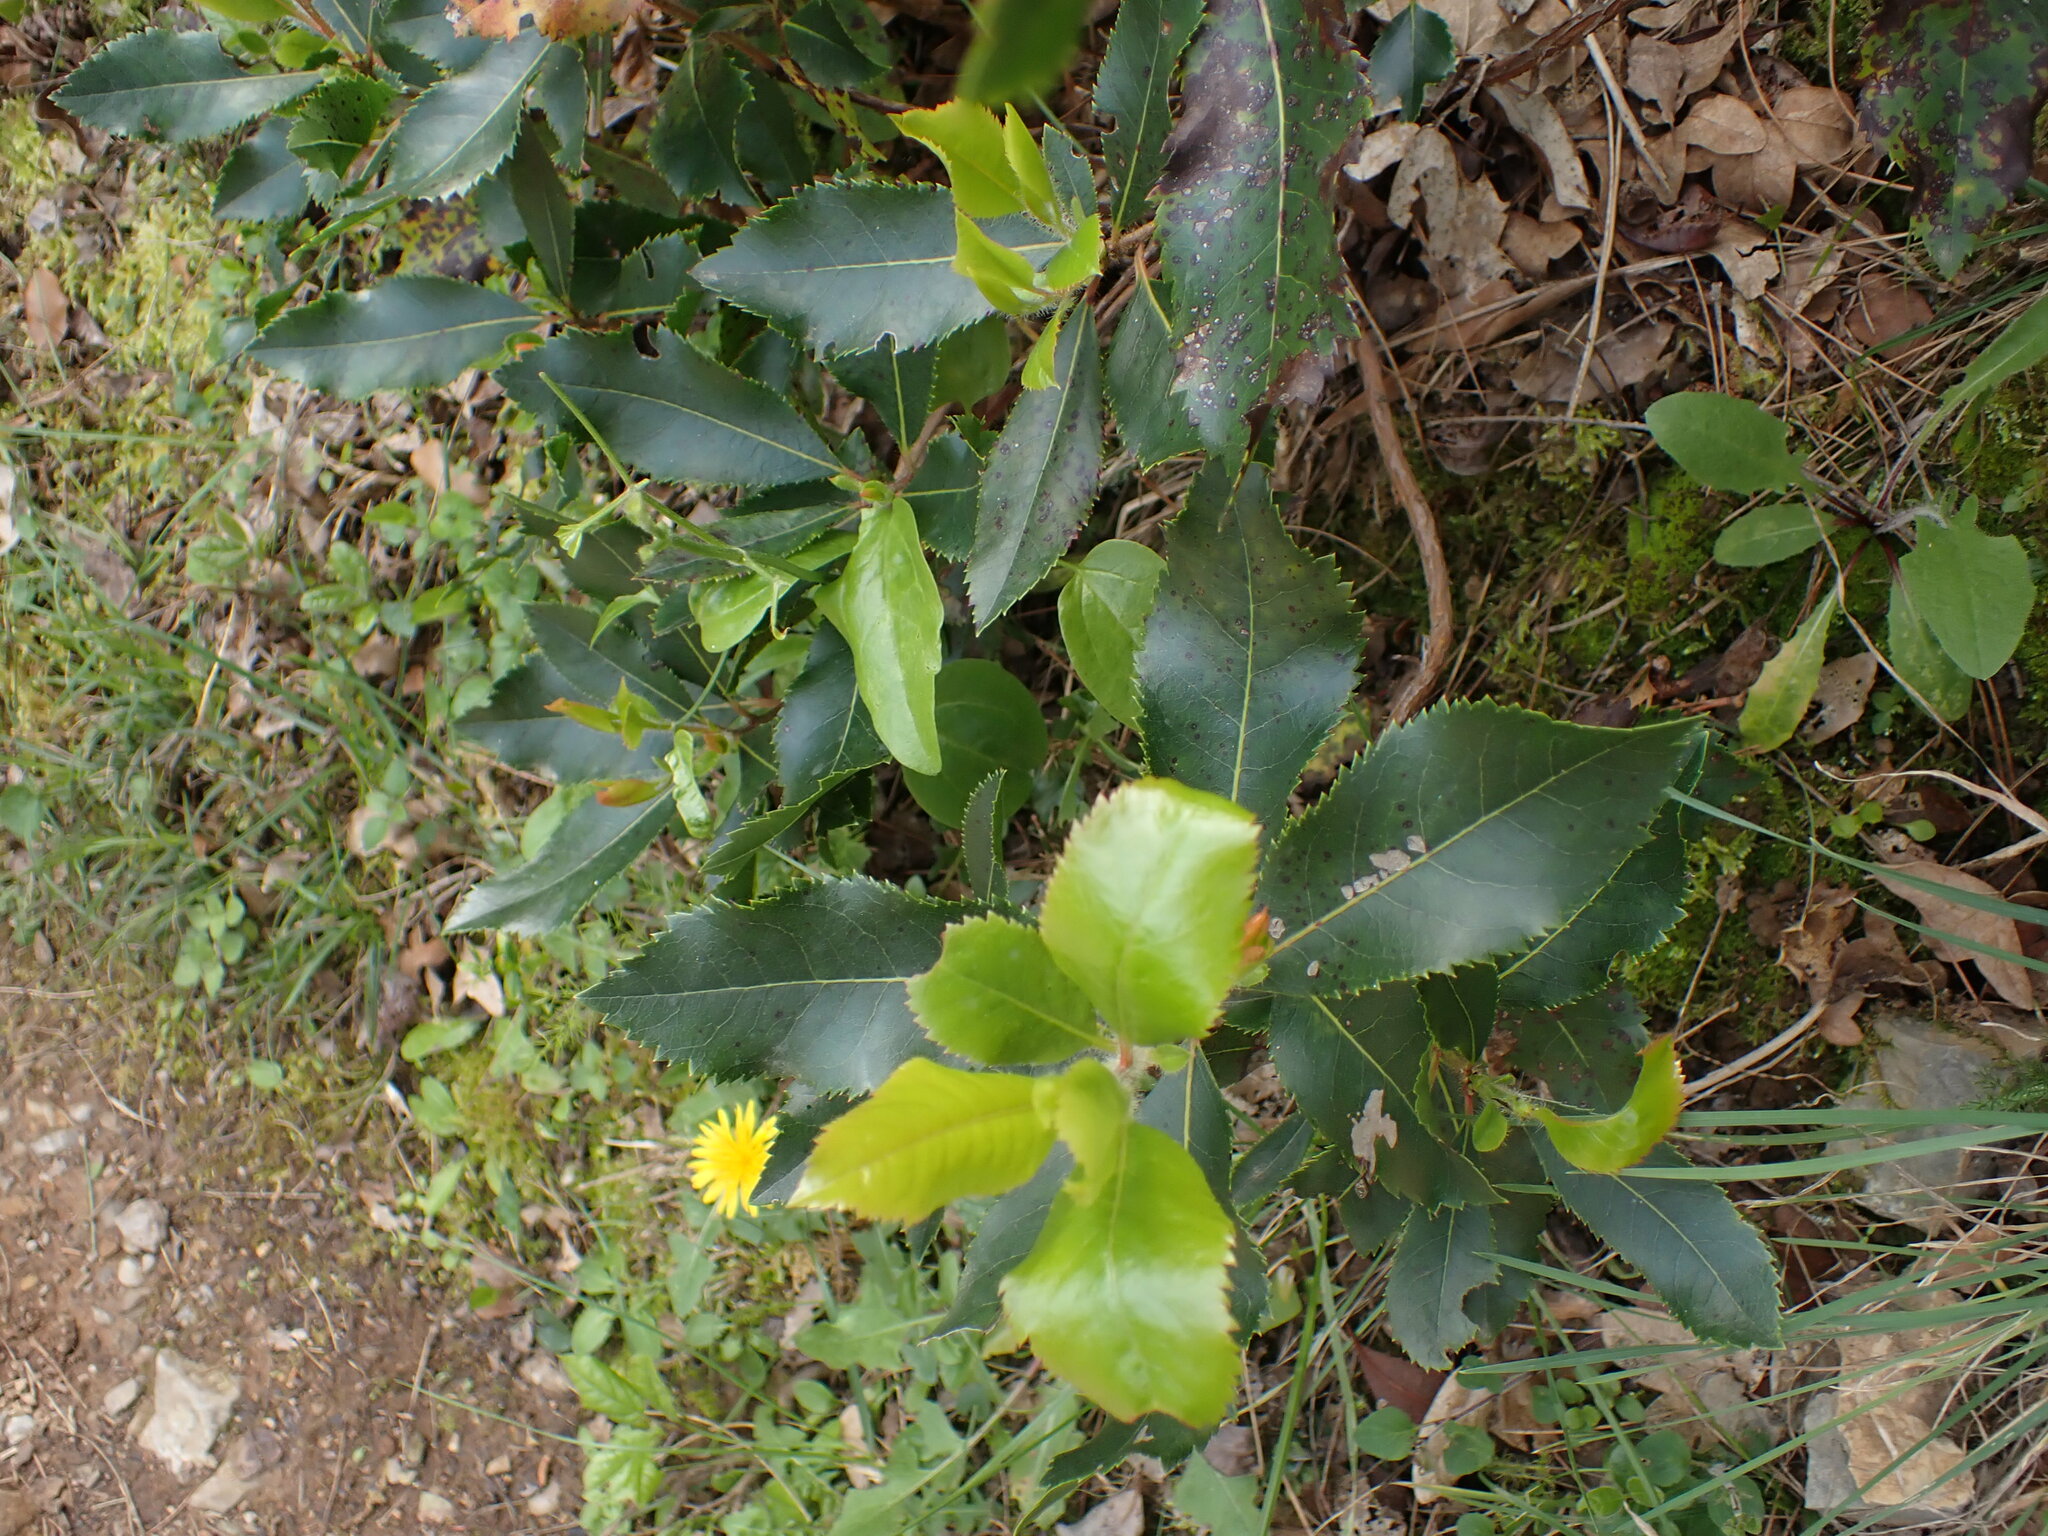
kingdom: Plantae
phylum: Tracheophyta
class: Magnoliopsida
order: Ericales
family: Ericaceae
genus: Arbutus
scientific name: Arbutus unedo
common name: Strawberry-tree
